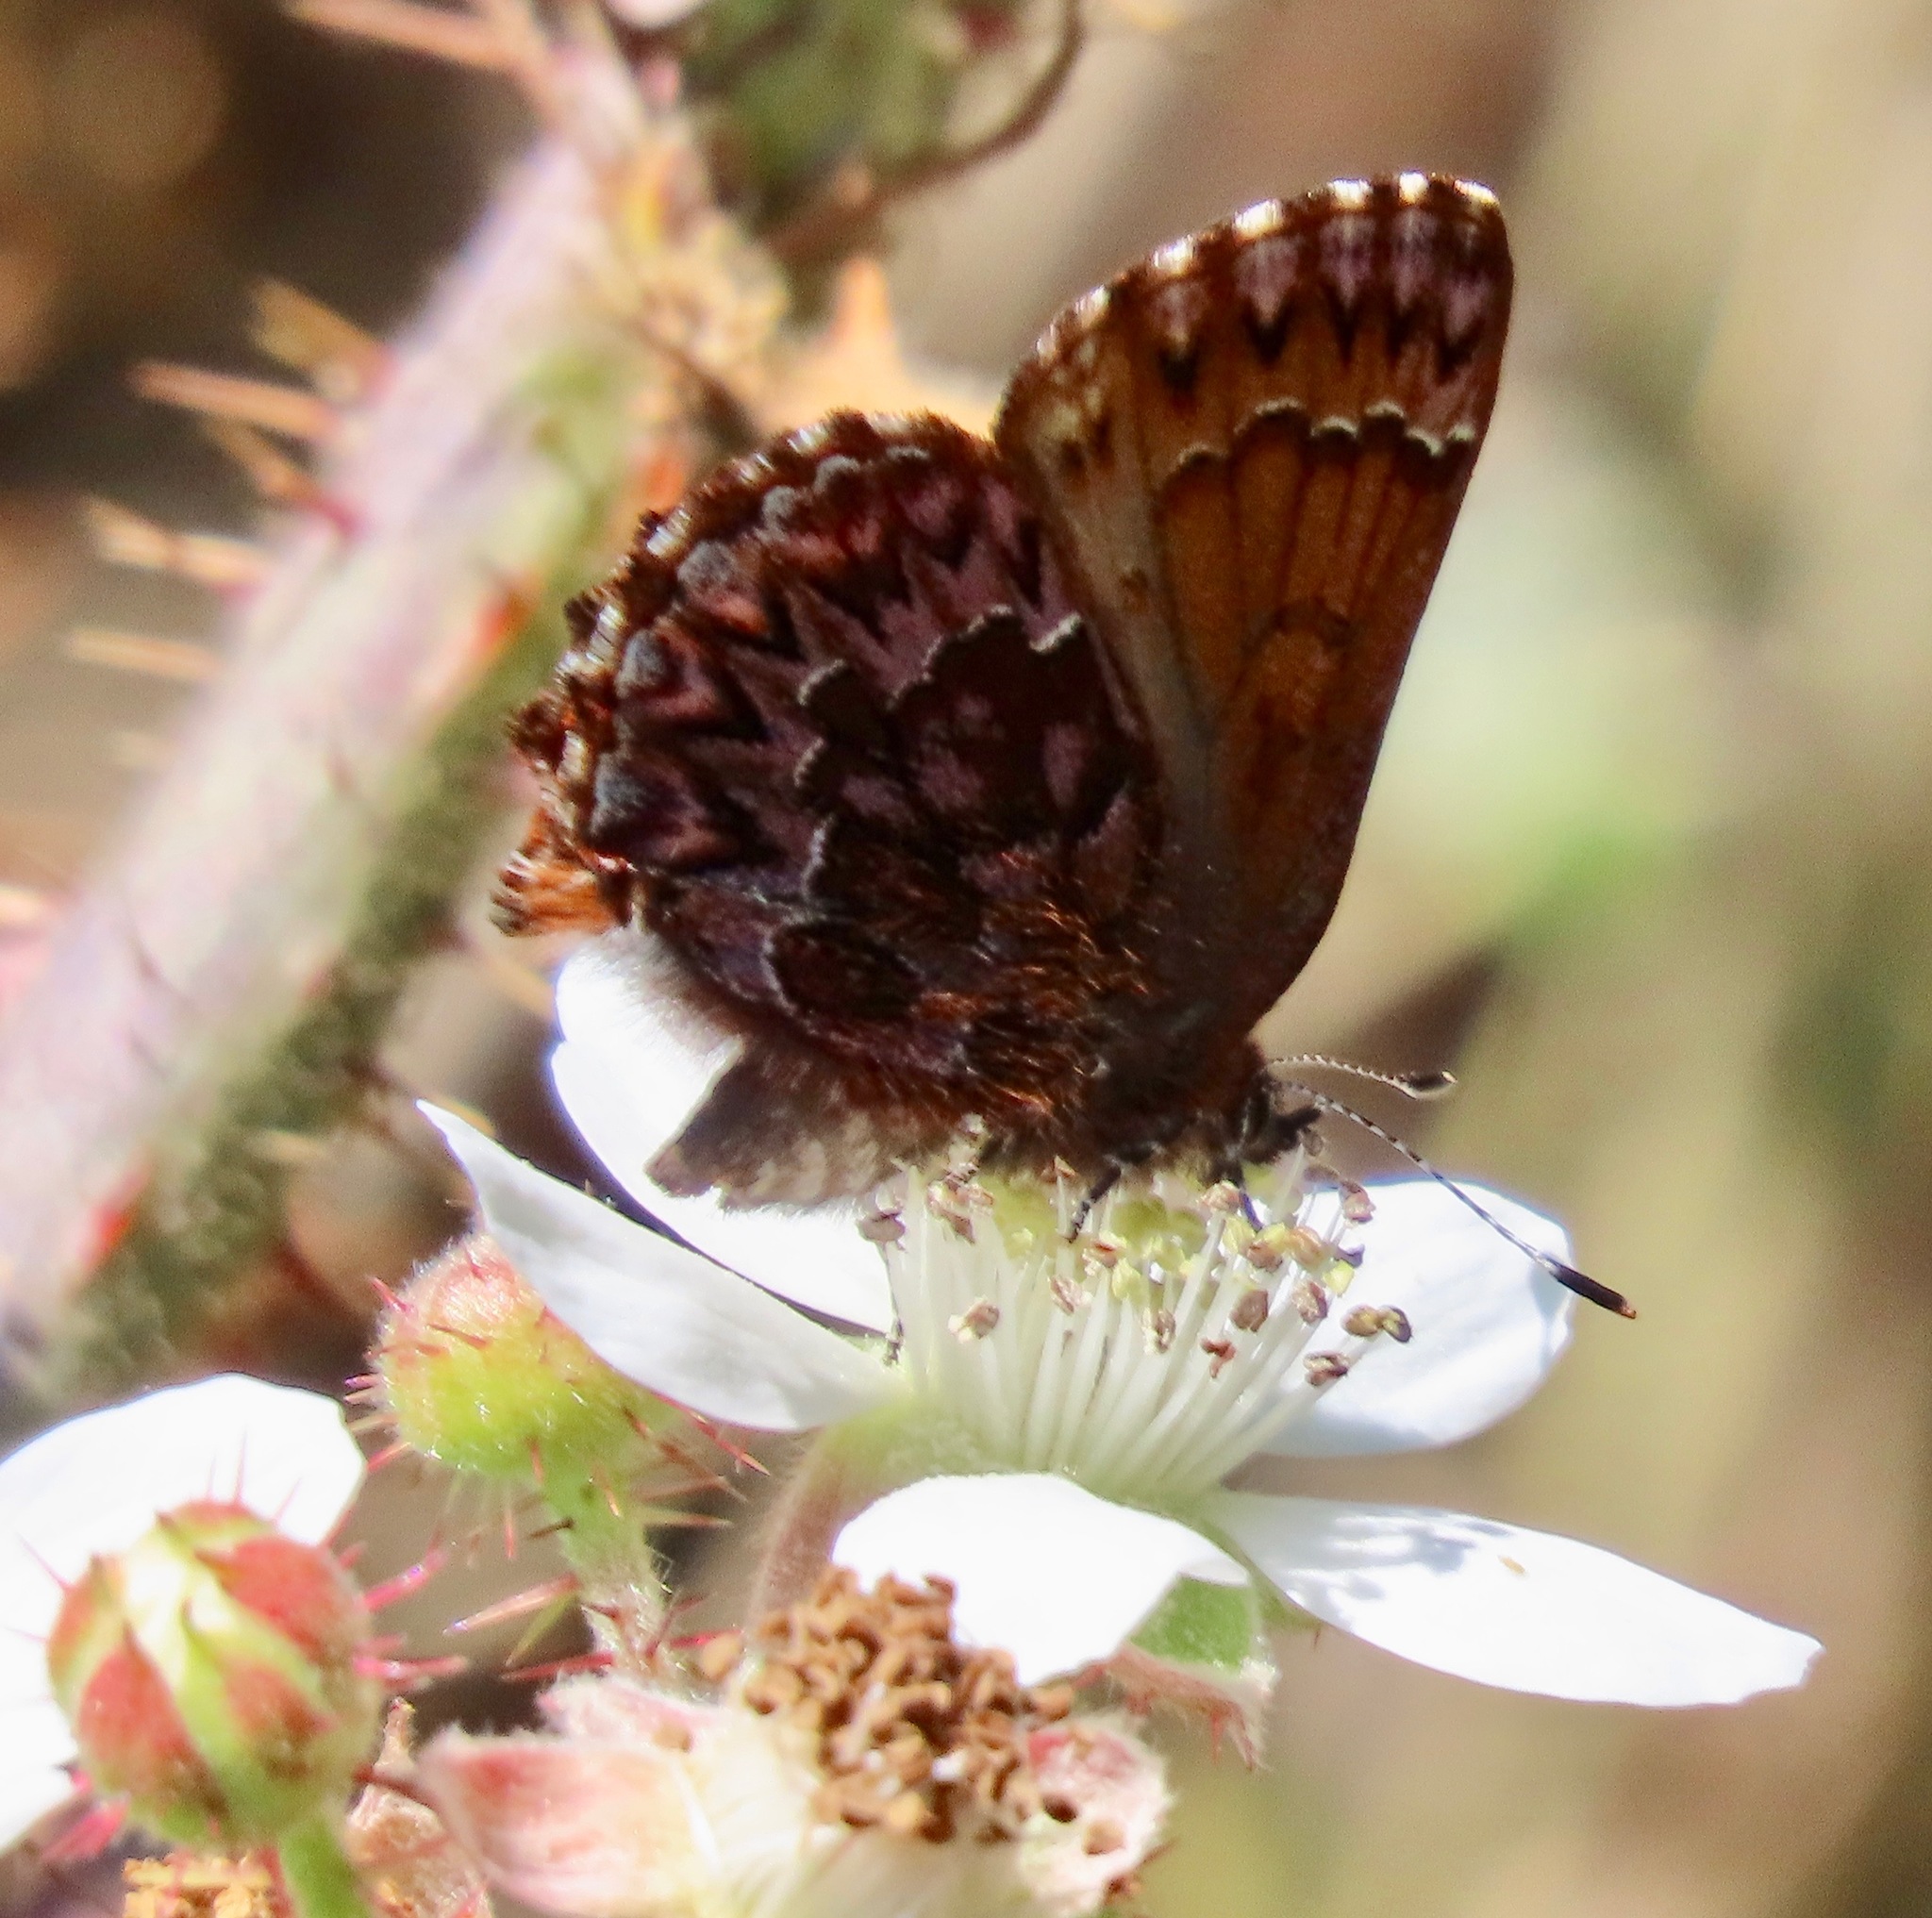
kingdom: Animalia
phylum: Arthropoda
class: Insecta
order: Lepidoptera
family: Lycaenidae
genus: Incisalia
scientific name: Incisalia eryphon
